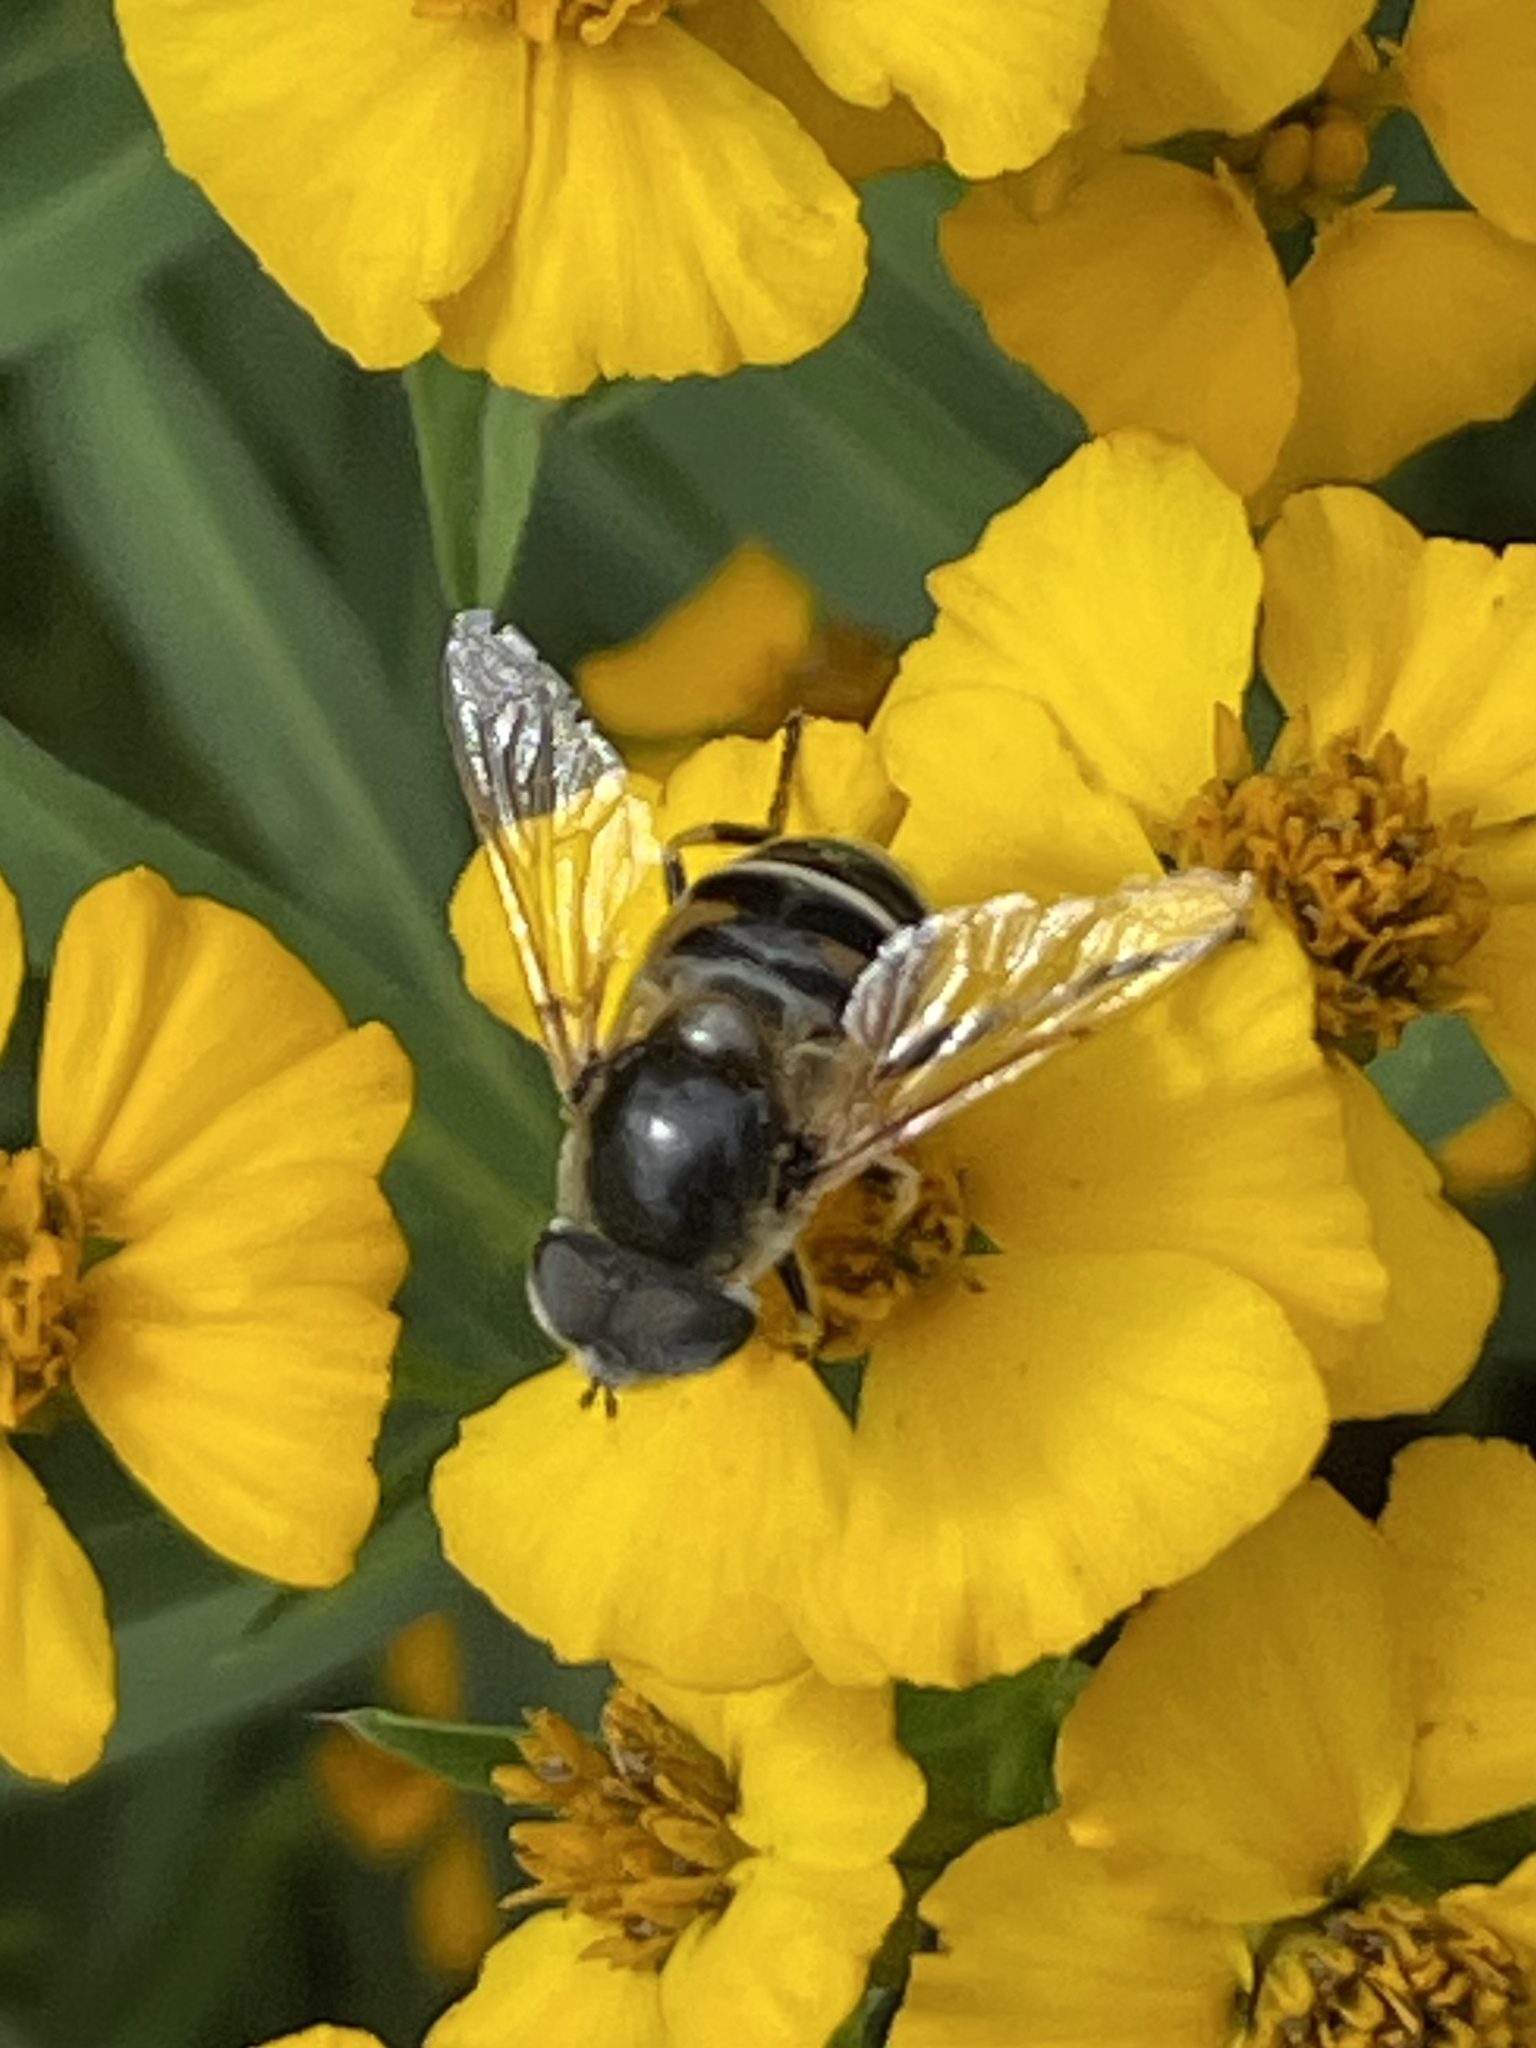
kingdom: Animalia
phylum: Arthropoda
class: Insecta
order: Diptera
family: Syrphidae
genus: Eristalis
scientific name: Eristalis stipator
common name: Yellow-shouldered drone fly
